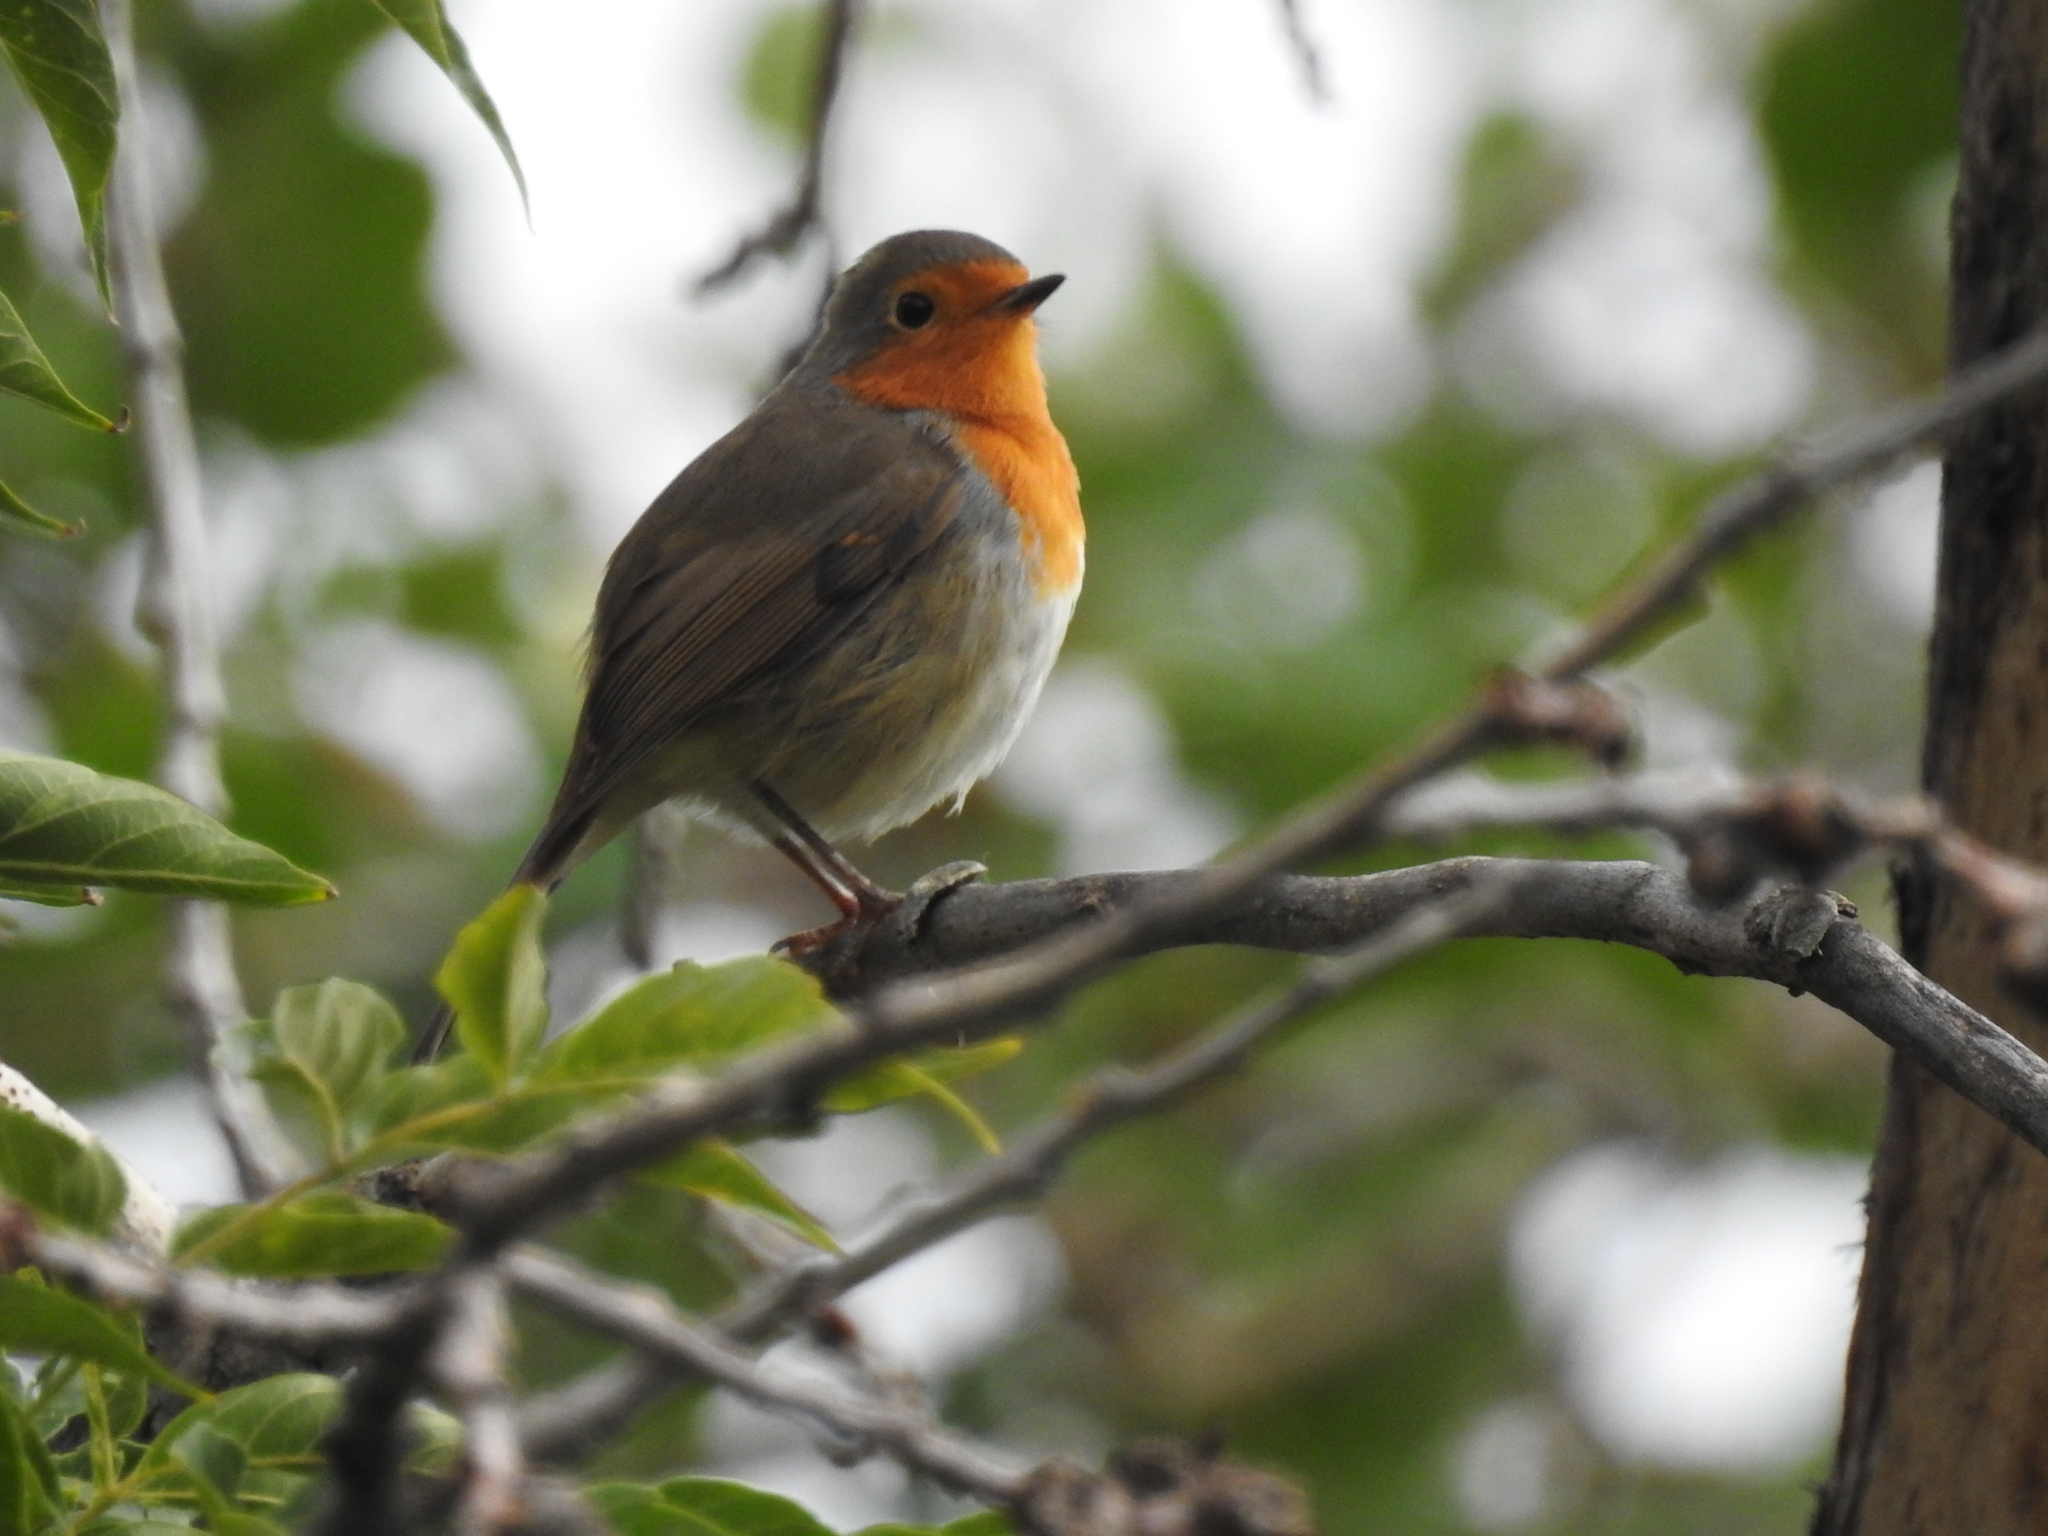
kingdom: Animalia
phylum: Chordata
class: Aves
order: Passeriformes
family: Muscicapidae
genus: Erithacus
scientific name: Erithacus rubecula
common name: European robin
